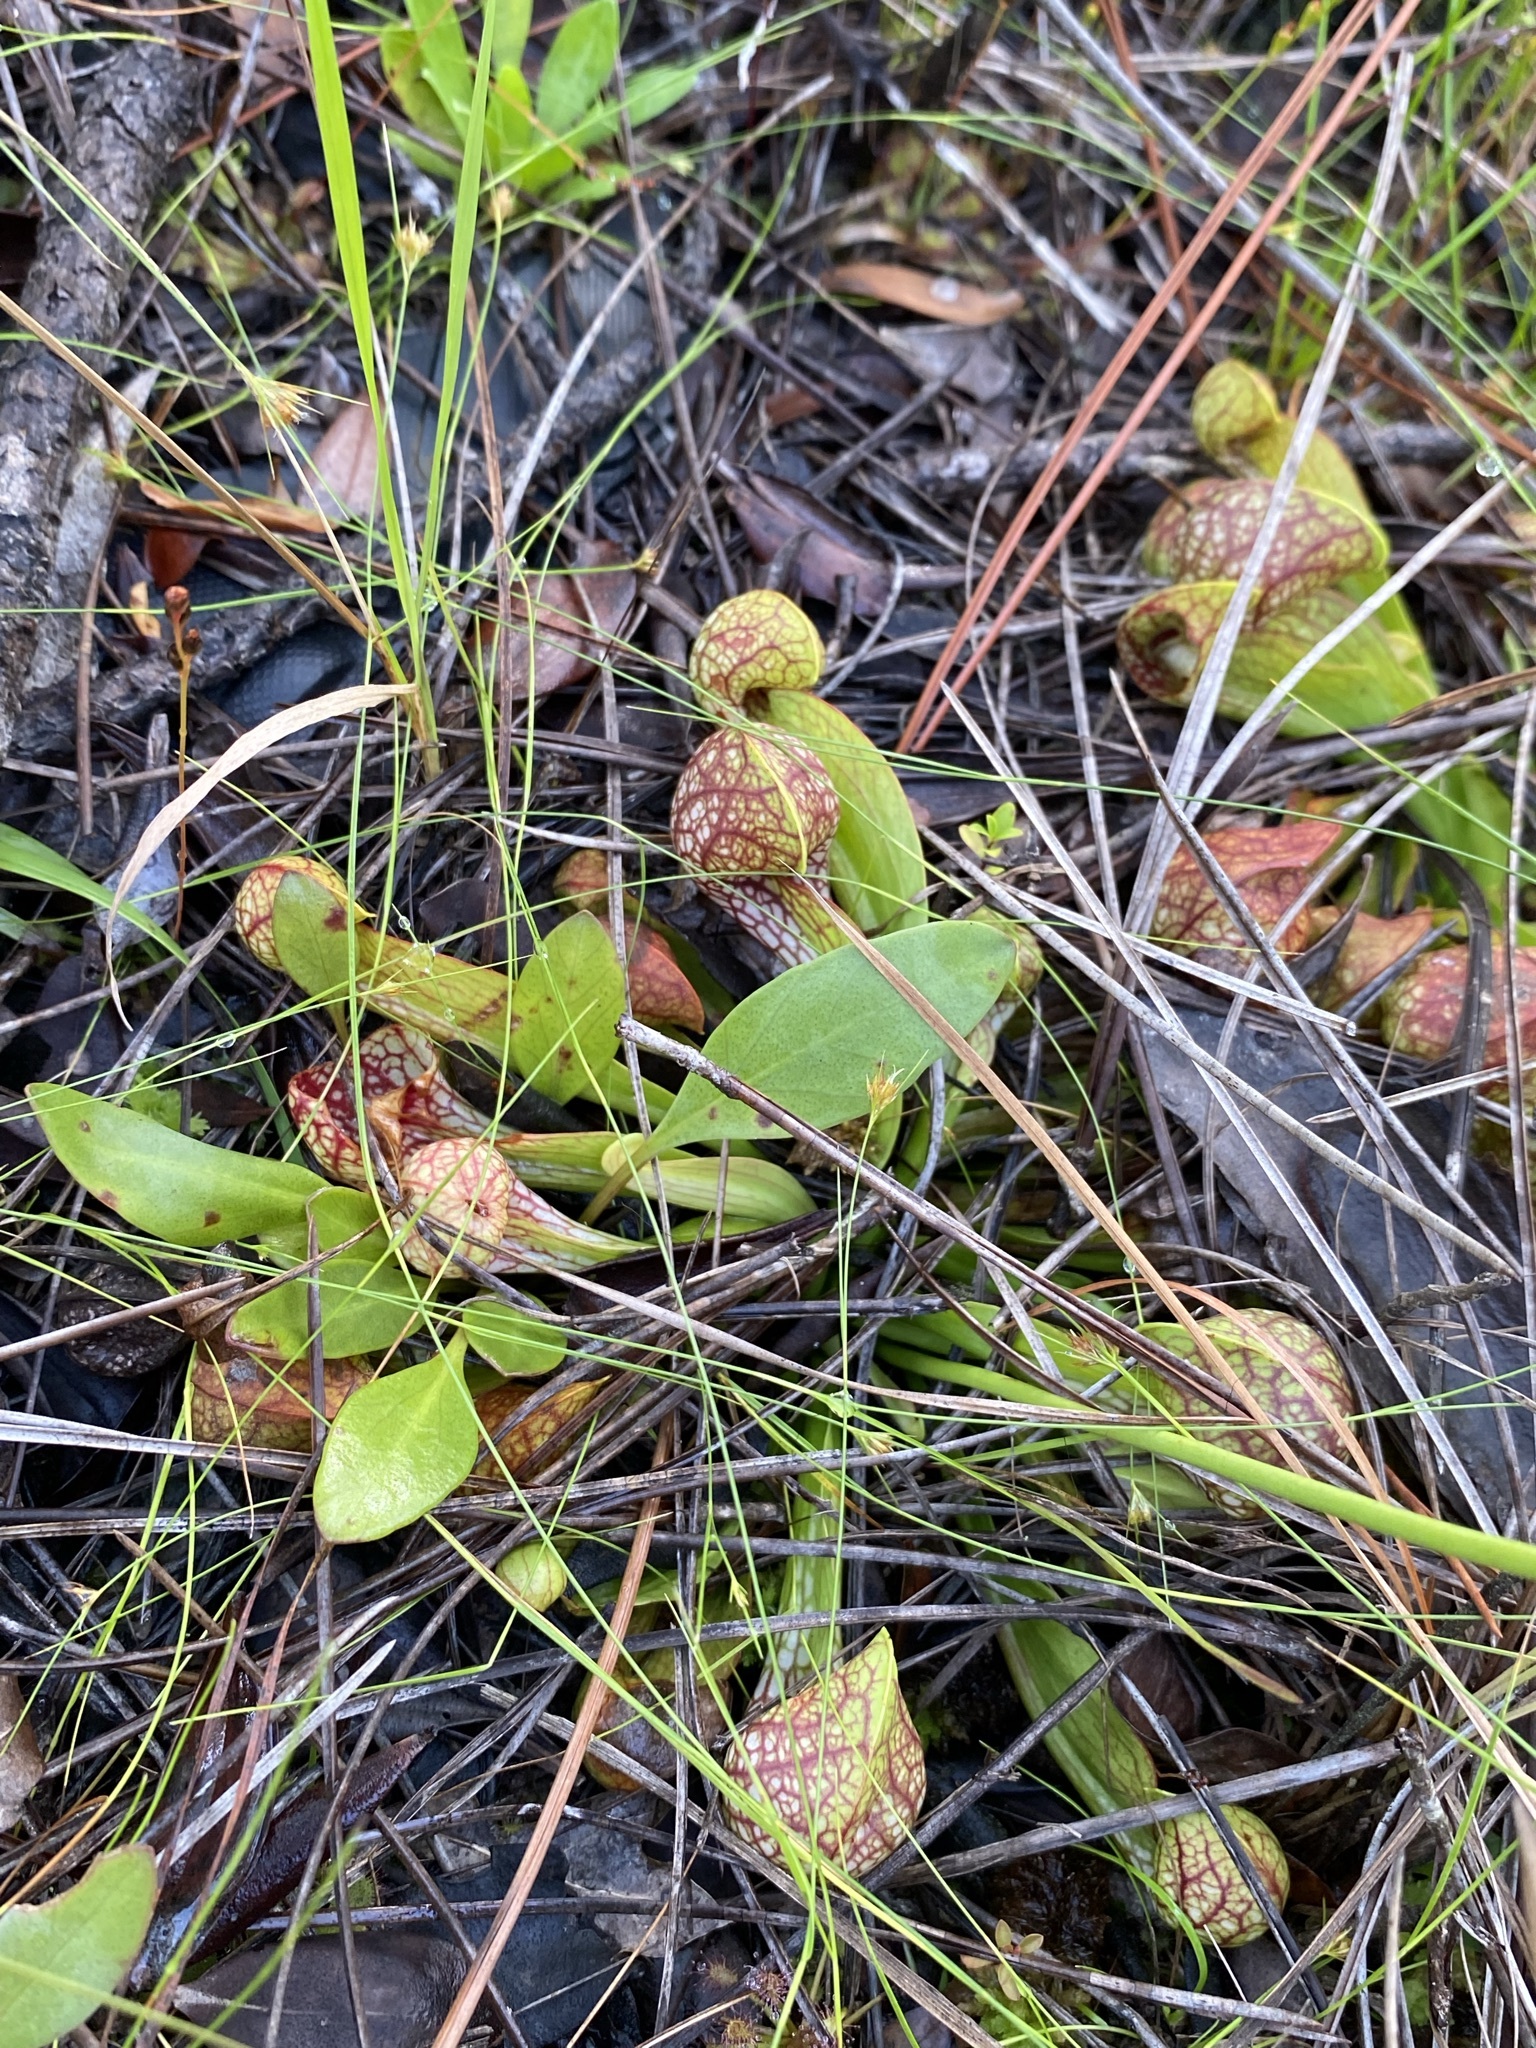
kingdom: Plantae
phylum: Tracheophyta
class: Magnoliopsida
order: Ericales
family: Sarraceniaceae
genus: Sarracenia
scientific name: Sarracenia psittacina
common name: Parrot pitcherplant
